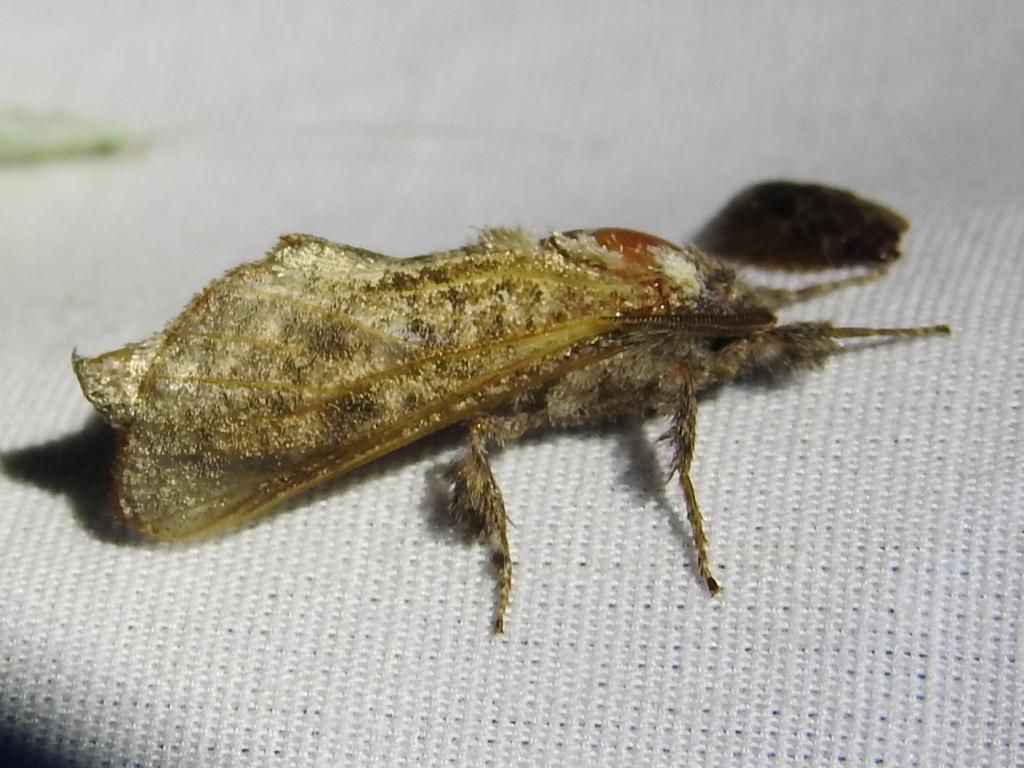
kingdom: Animalia
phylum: Arthropoda
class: Insecta
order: Lepidoptera
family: Cossidae
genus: Givira
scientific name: Givira arbeloides
